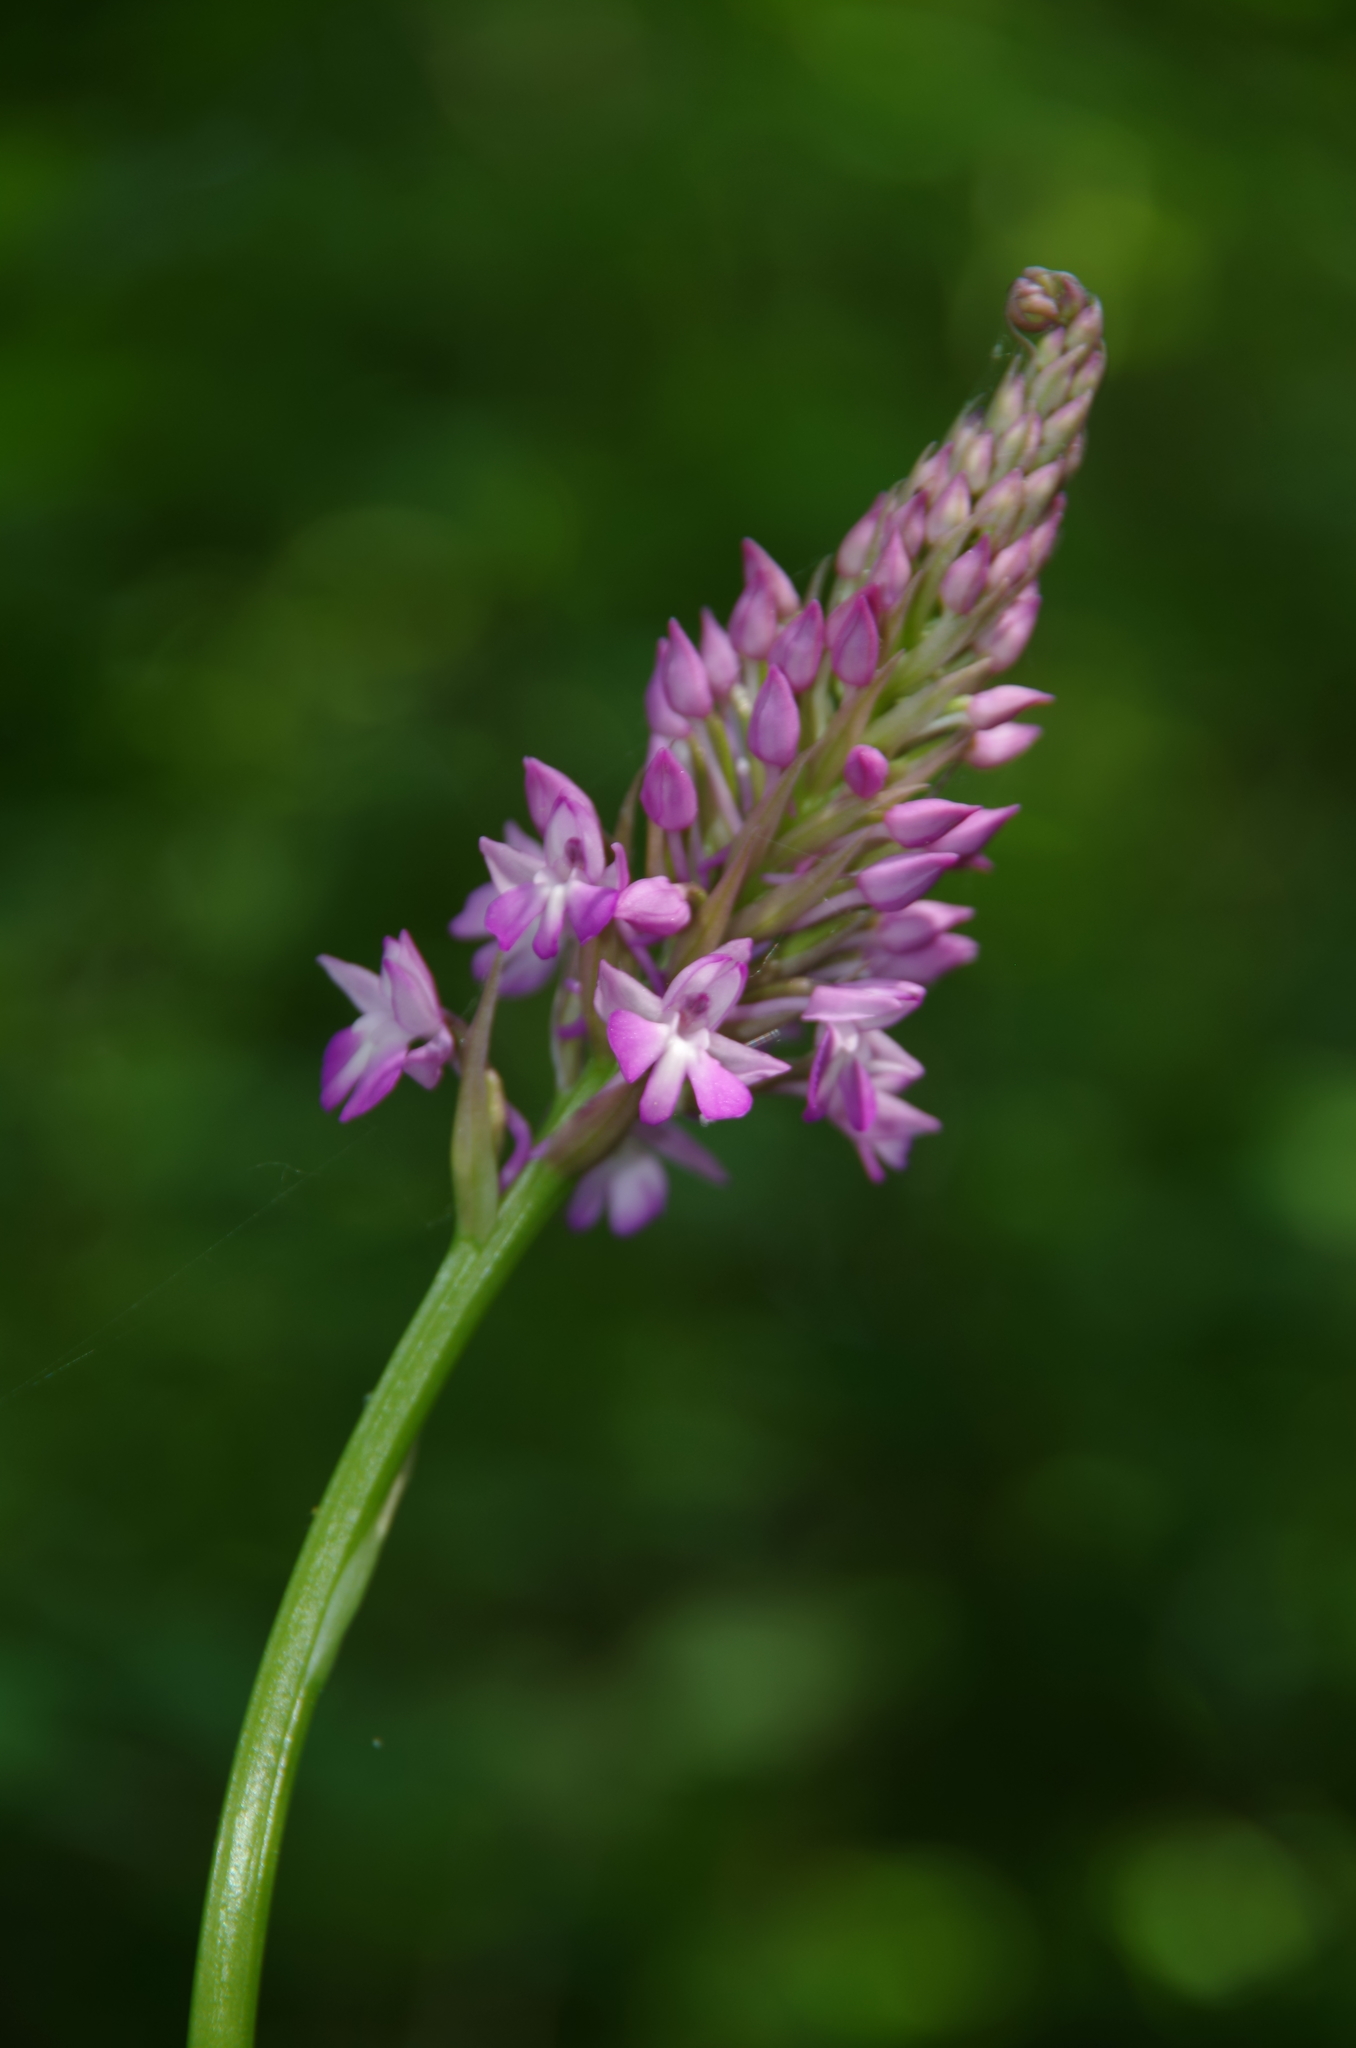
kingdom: Plantae
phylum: Tracheophyta
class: Liliopsida
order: Asparagales
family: Orchidaceae
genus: Anacamptis
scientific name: Anacamptis pyramidalis
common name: Pyramidal orchid
